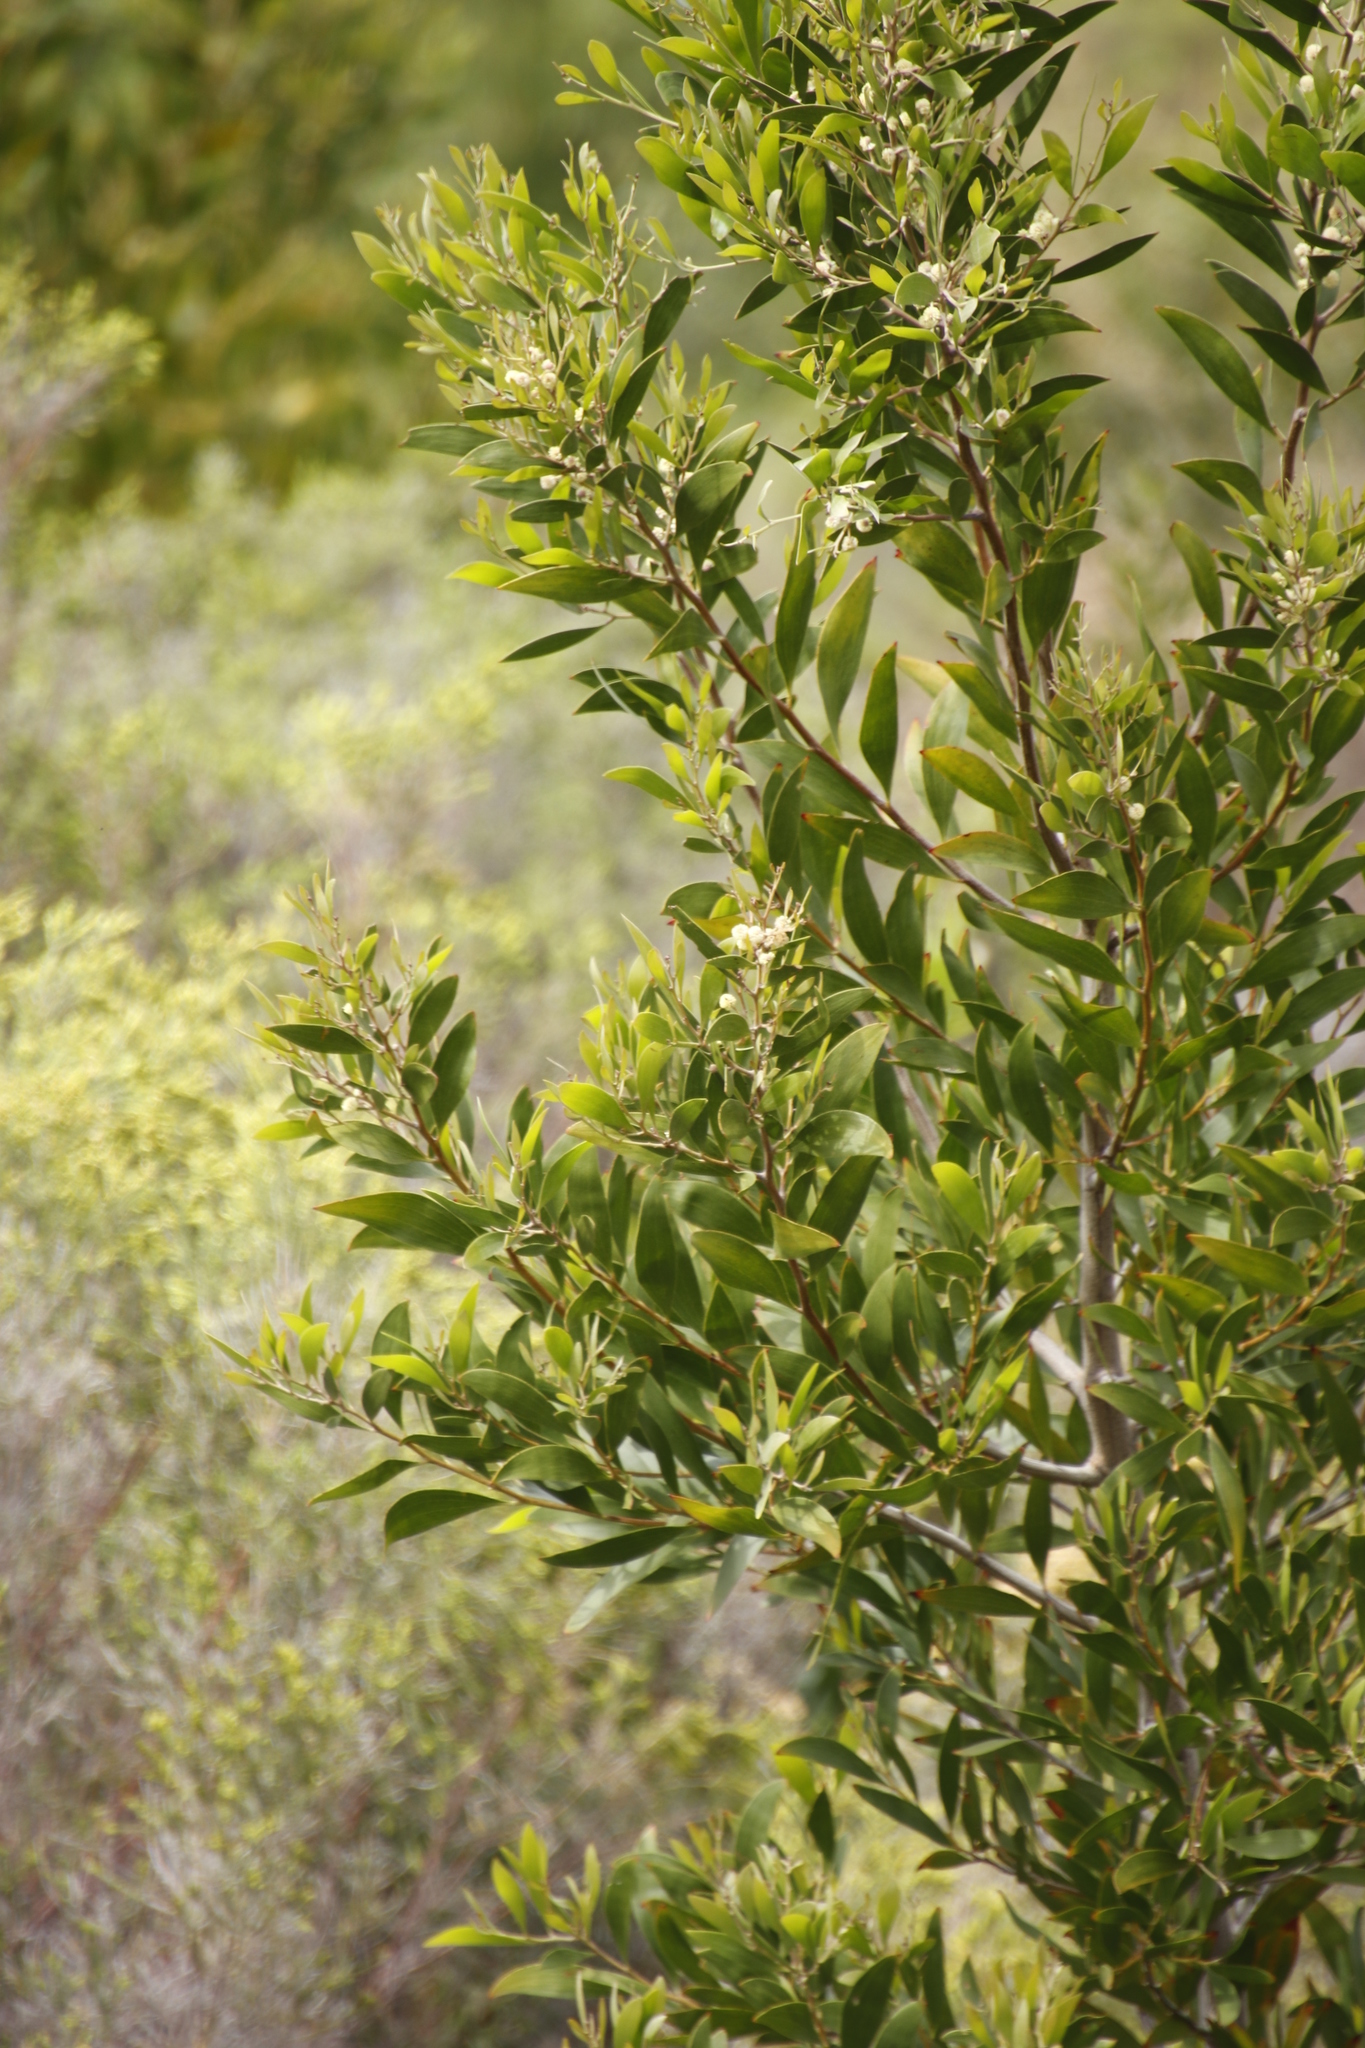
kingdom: Plantae
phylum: Tracheophyta
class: Magnoliopsida
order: Fabales
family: Fabaceae
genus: Acacia
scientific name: Acacia melanoxylon
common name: Blackwood
